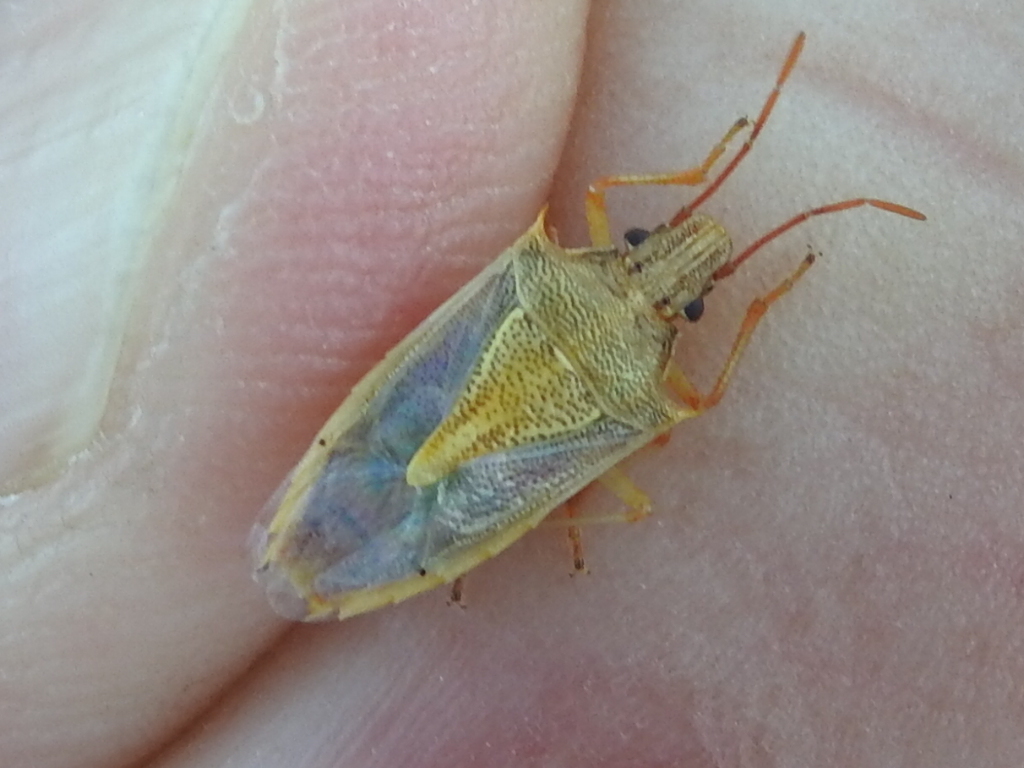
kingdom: Animalia
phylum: Arthropoda
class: Insecta
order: Hemiptera
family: Pentatomidae
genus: Oebalus
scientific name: Oebalus pugnax
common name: Rice stink bug
